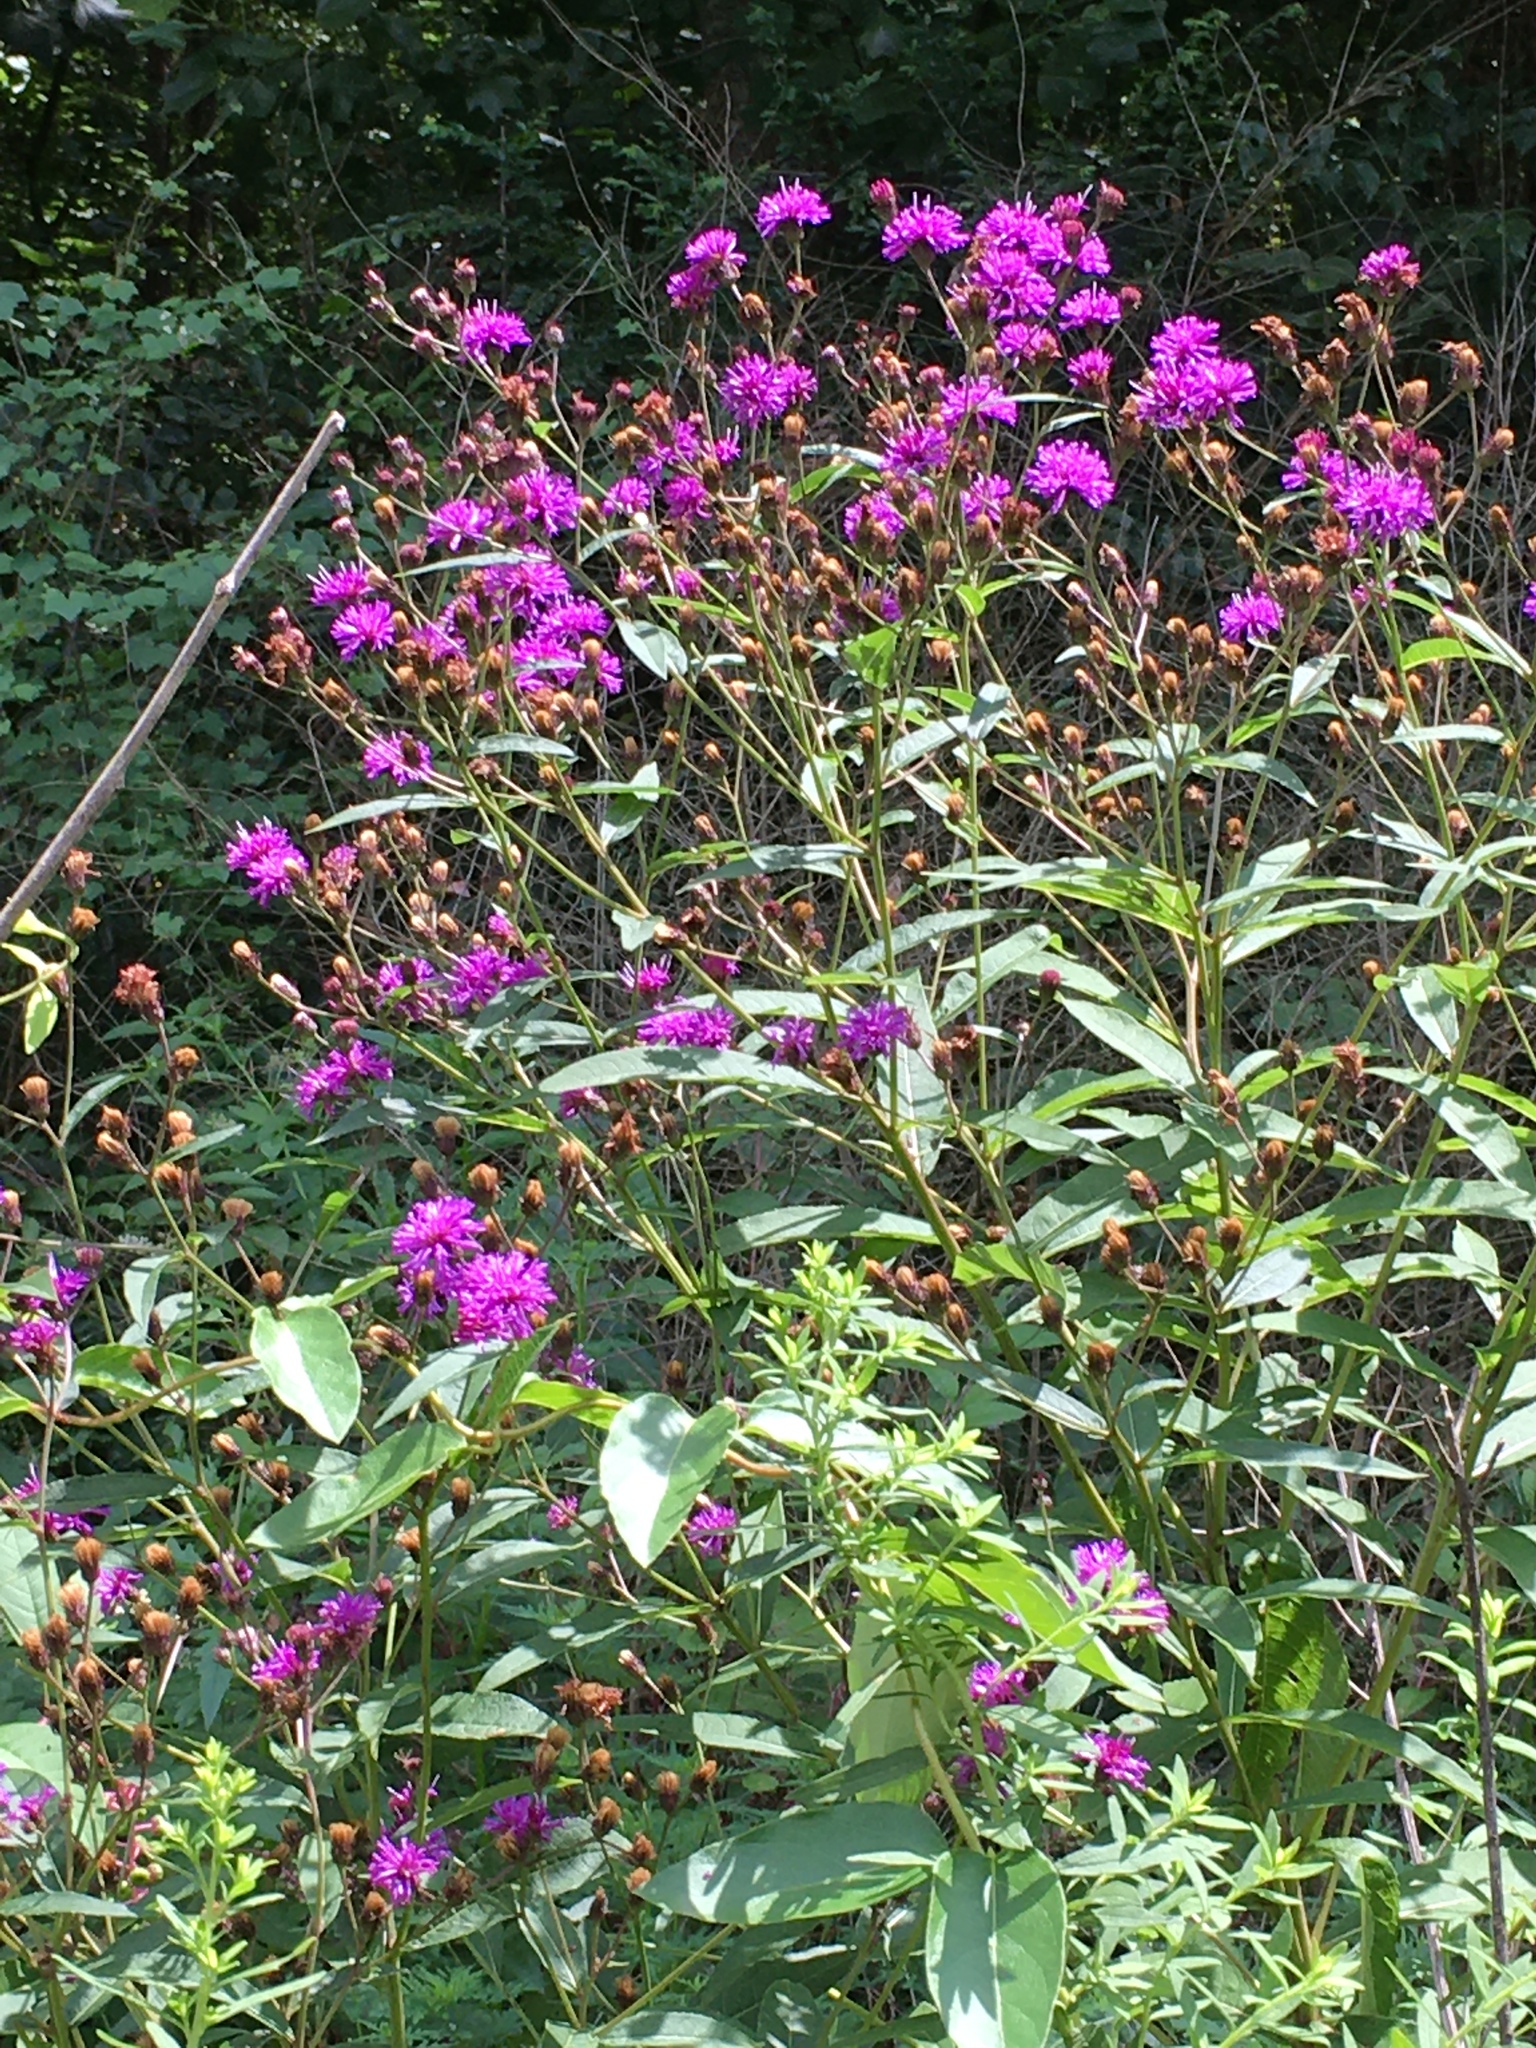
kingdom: Plantae
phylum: Tracheophyta
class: Magnoliopsida
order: Asterales
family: Asteraceae
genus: Vernonia
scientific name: Vernonia noveboracensis
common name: New york ironweed
